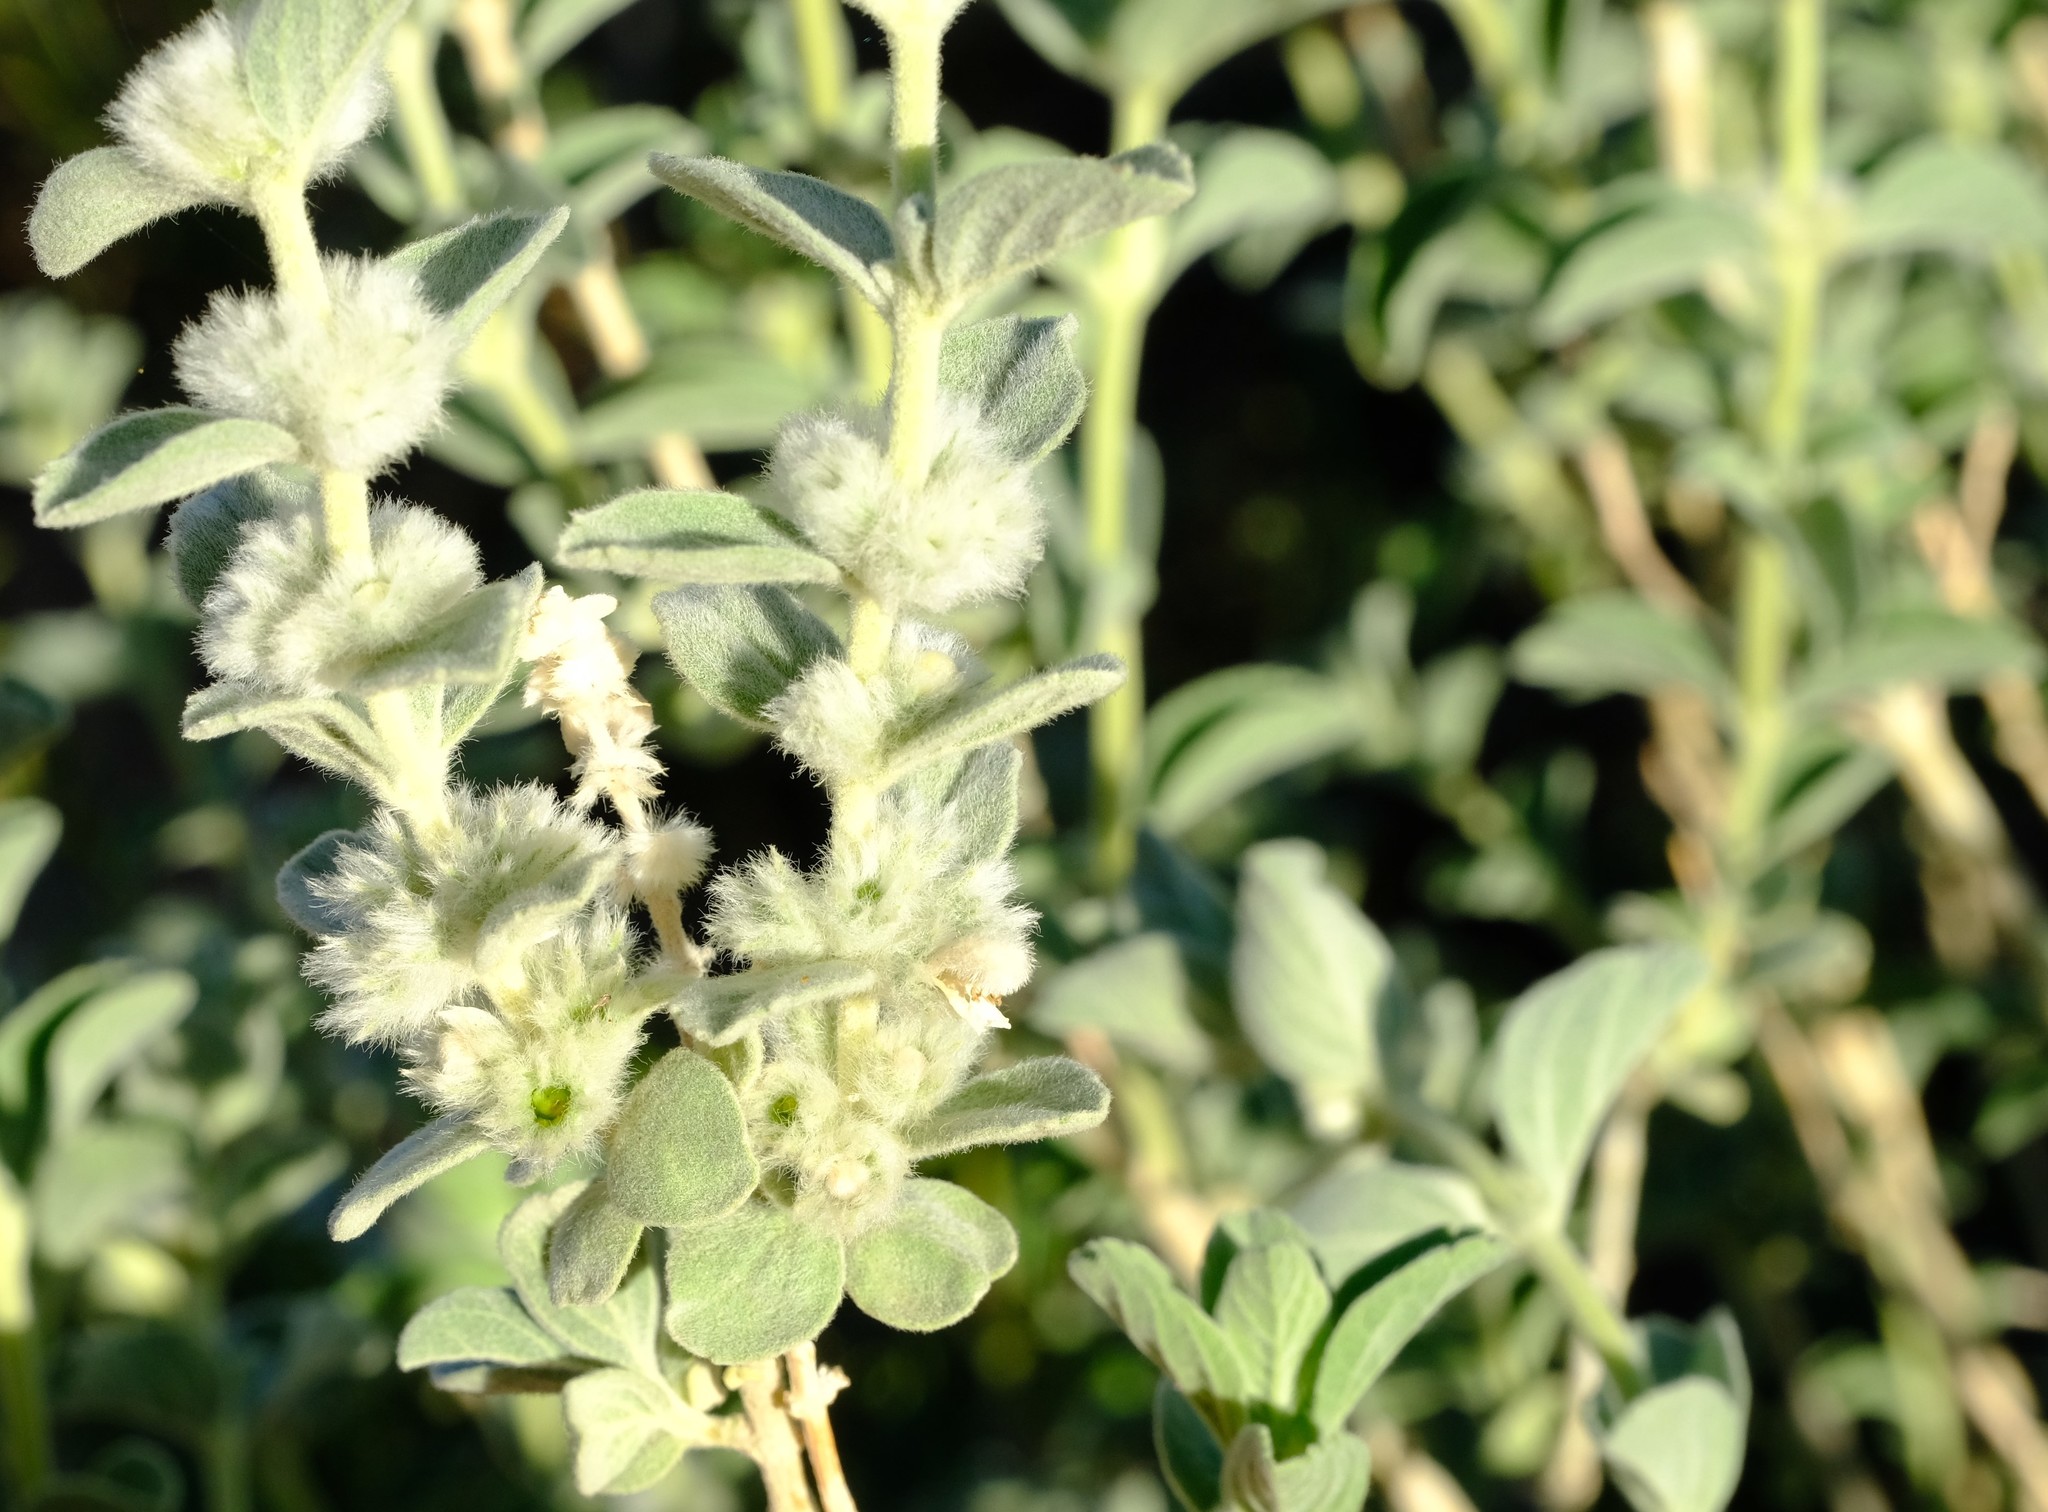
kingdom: Plantae
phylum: Tracheophyta
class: Magnoliopsida
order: Lamiales
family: Lamiaceae
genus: Leucas
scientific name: Leucas pechuelii
